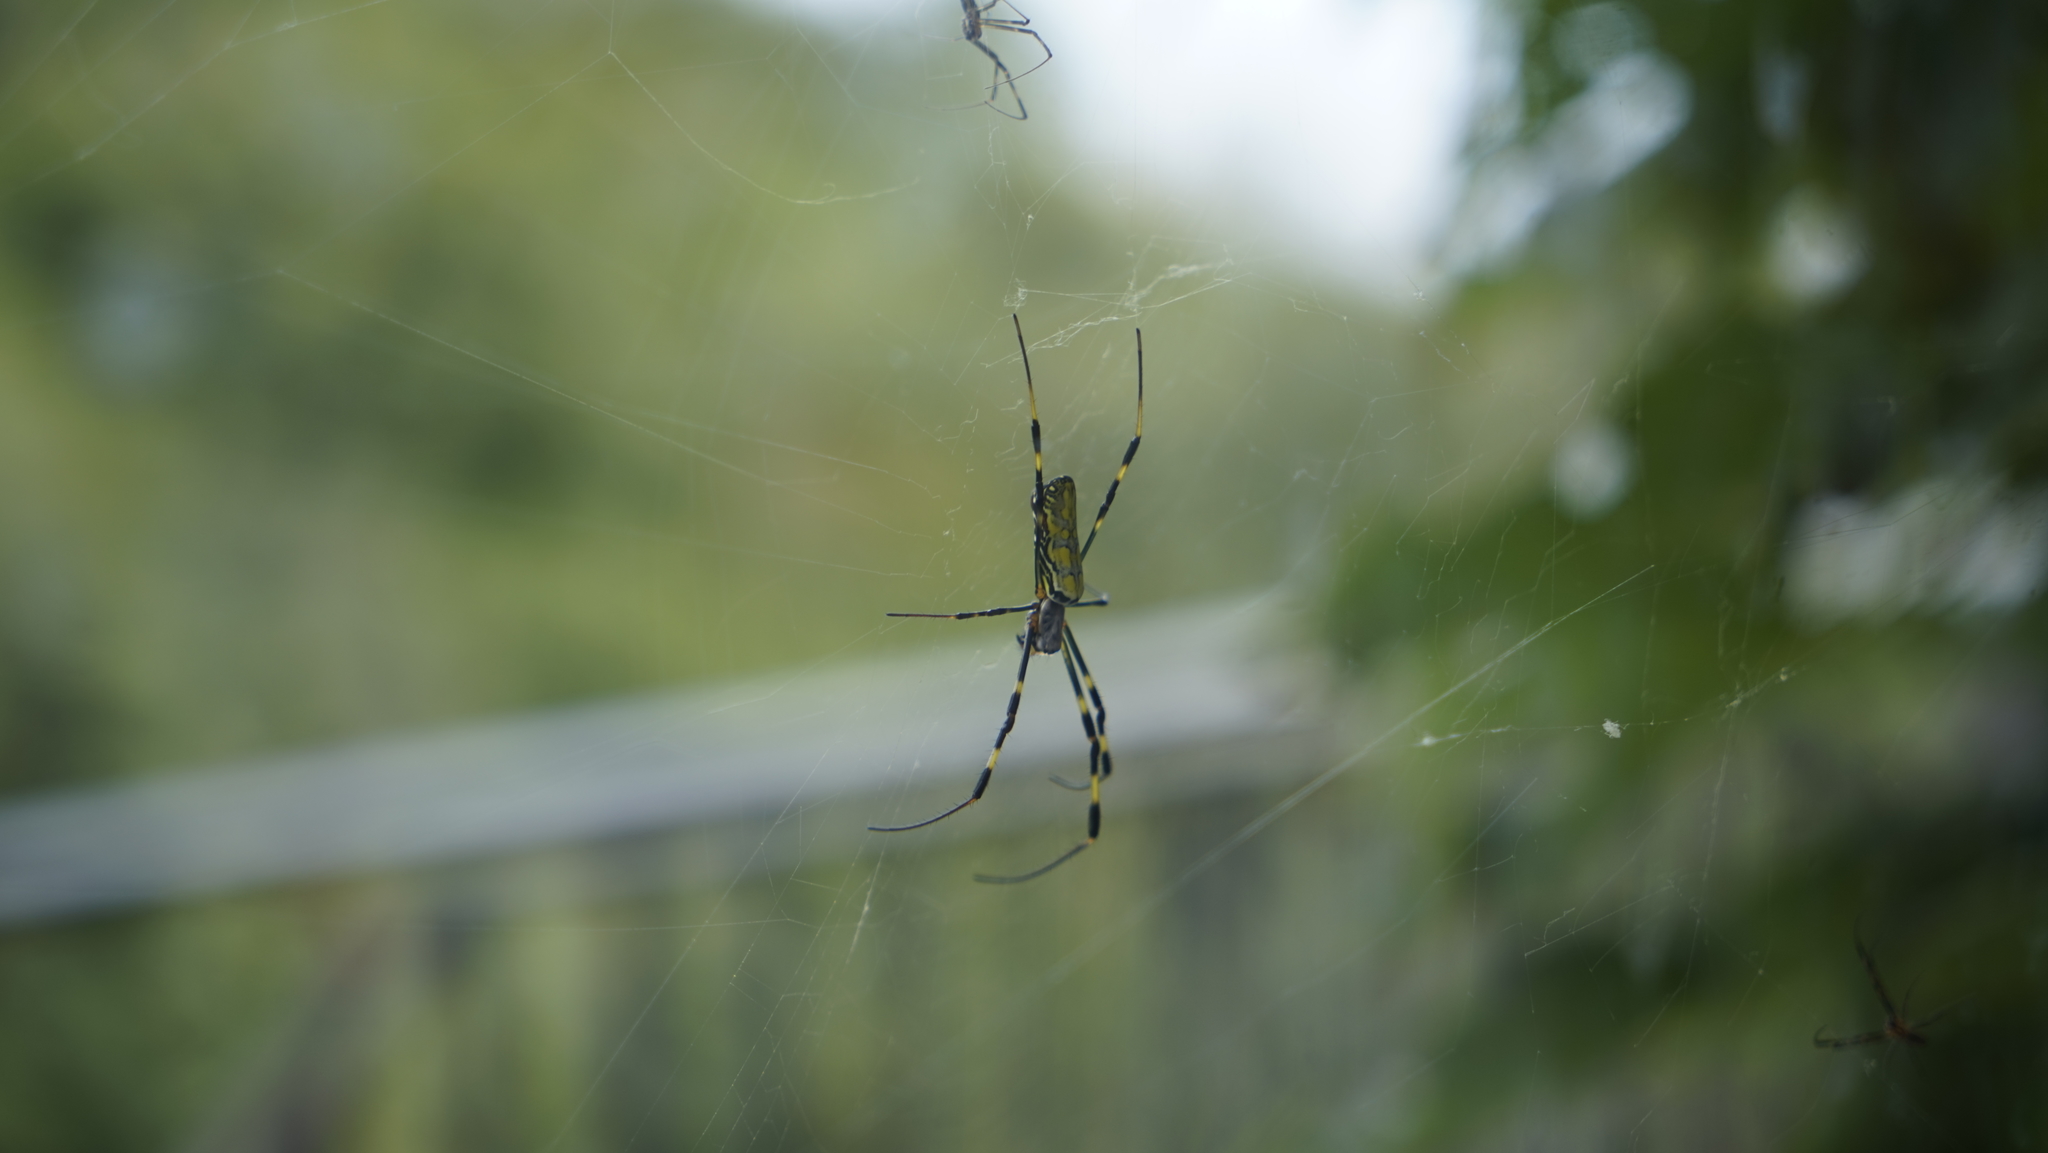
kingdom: Animalia
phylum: Arthropoda
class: Arachnida
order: Araneae
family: Araneidae
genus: Trichonephila
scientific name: Trichonephila clavata
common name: Jorō spider
